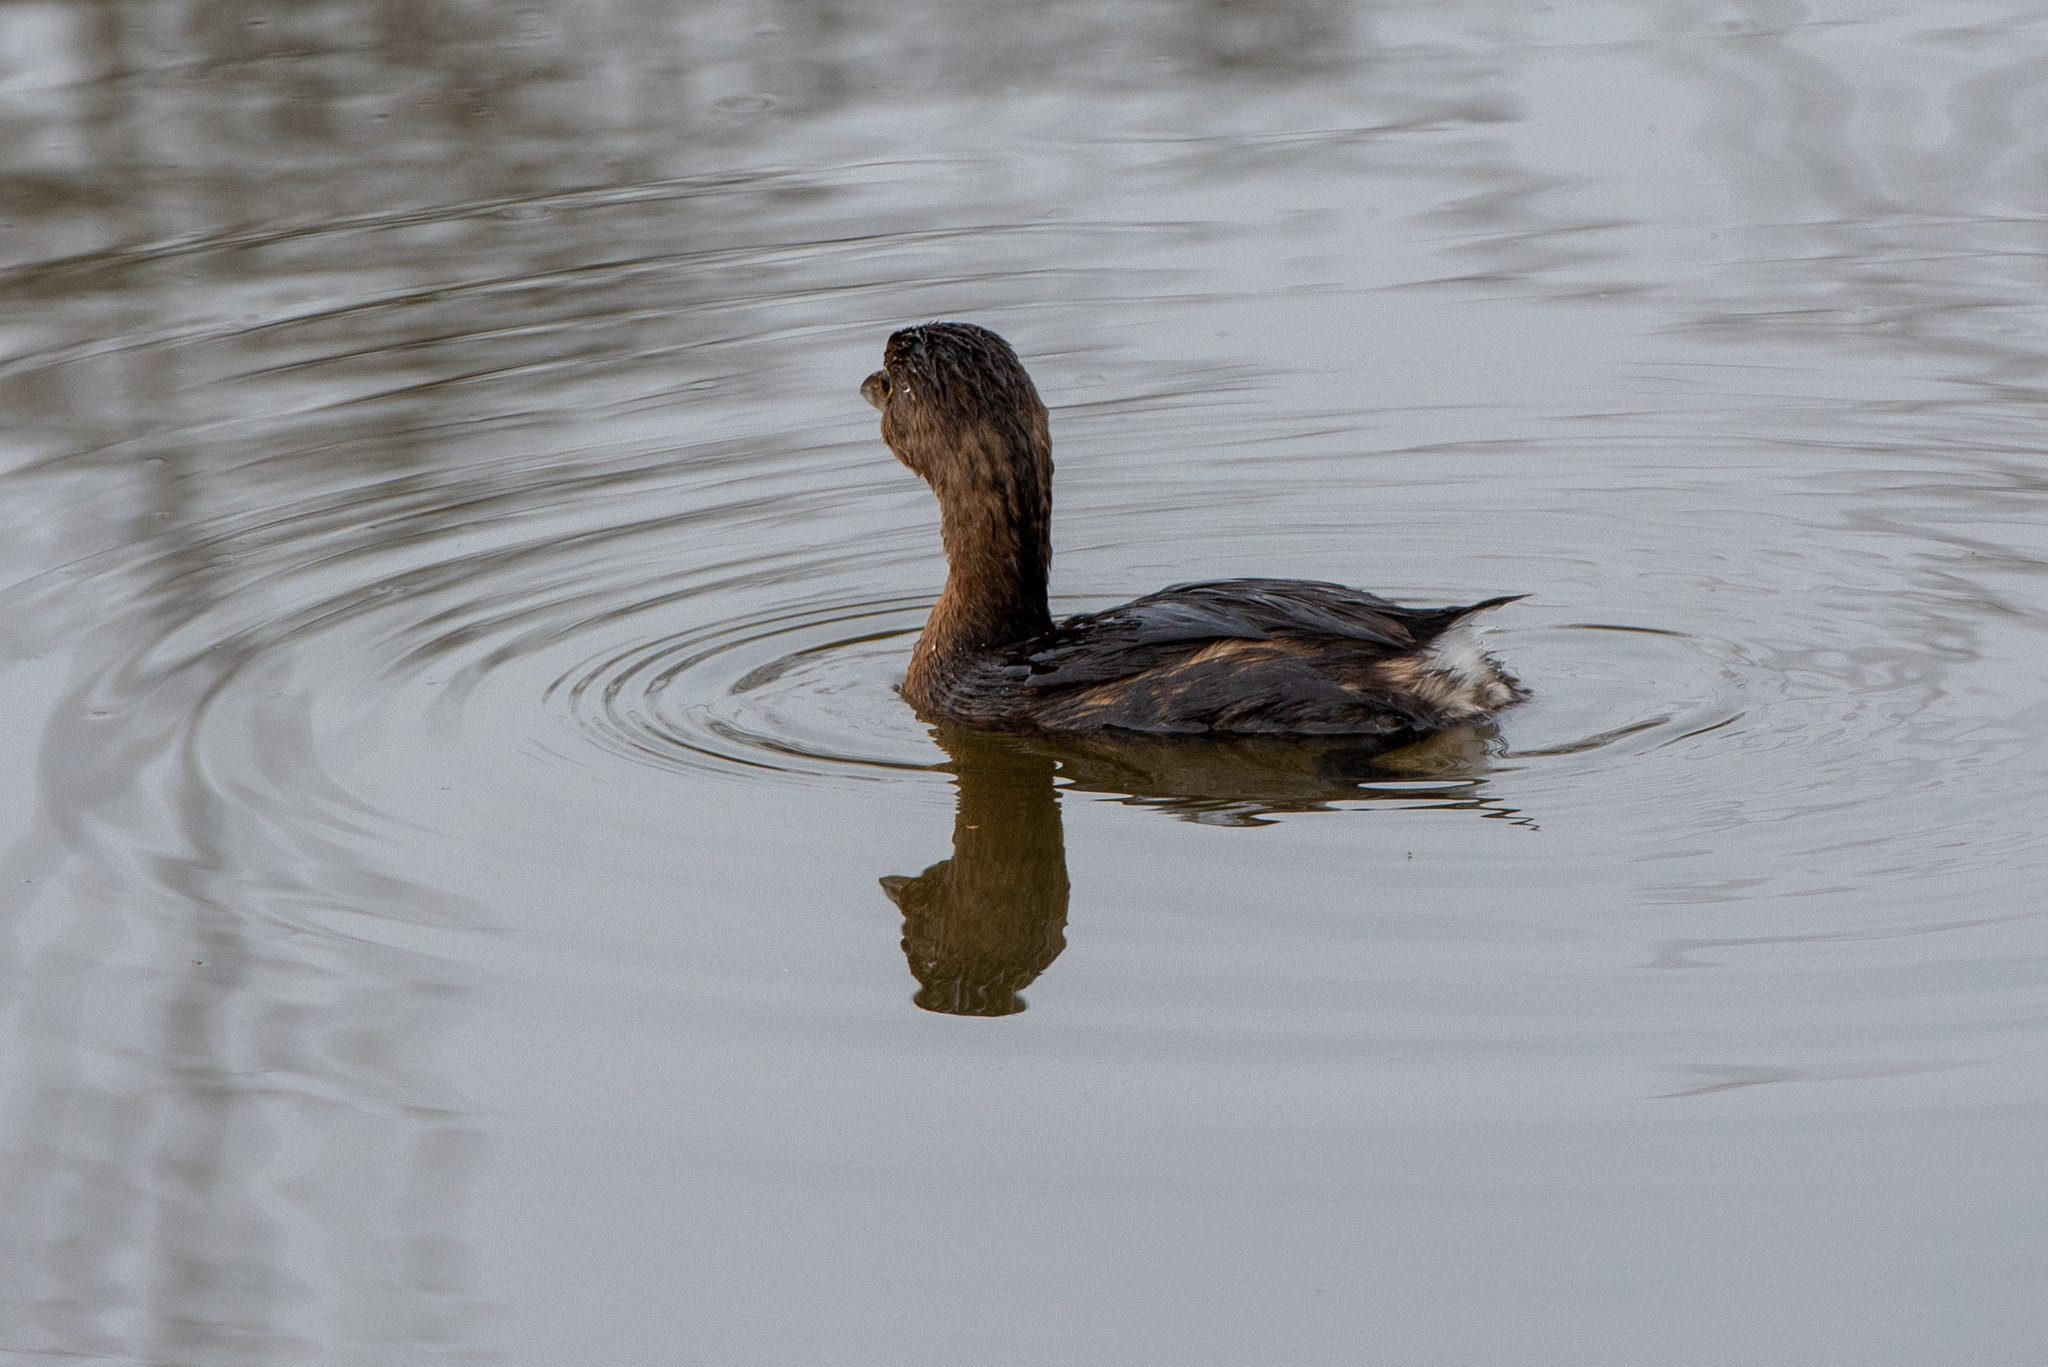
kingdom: Animalia
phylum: Chordata
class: Aves
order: Podicipediformes
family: Podicipedidae
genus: Podilymbus
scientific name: Podilymbus podiceps
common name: Pied-billed grebe
